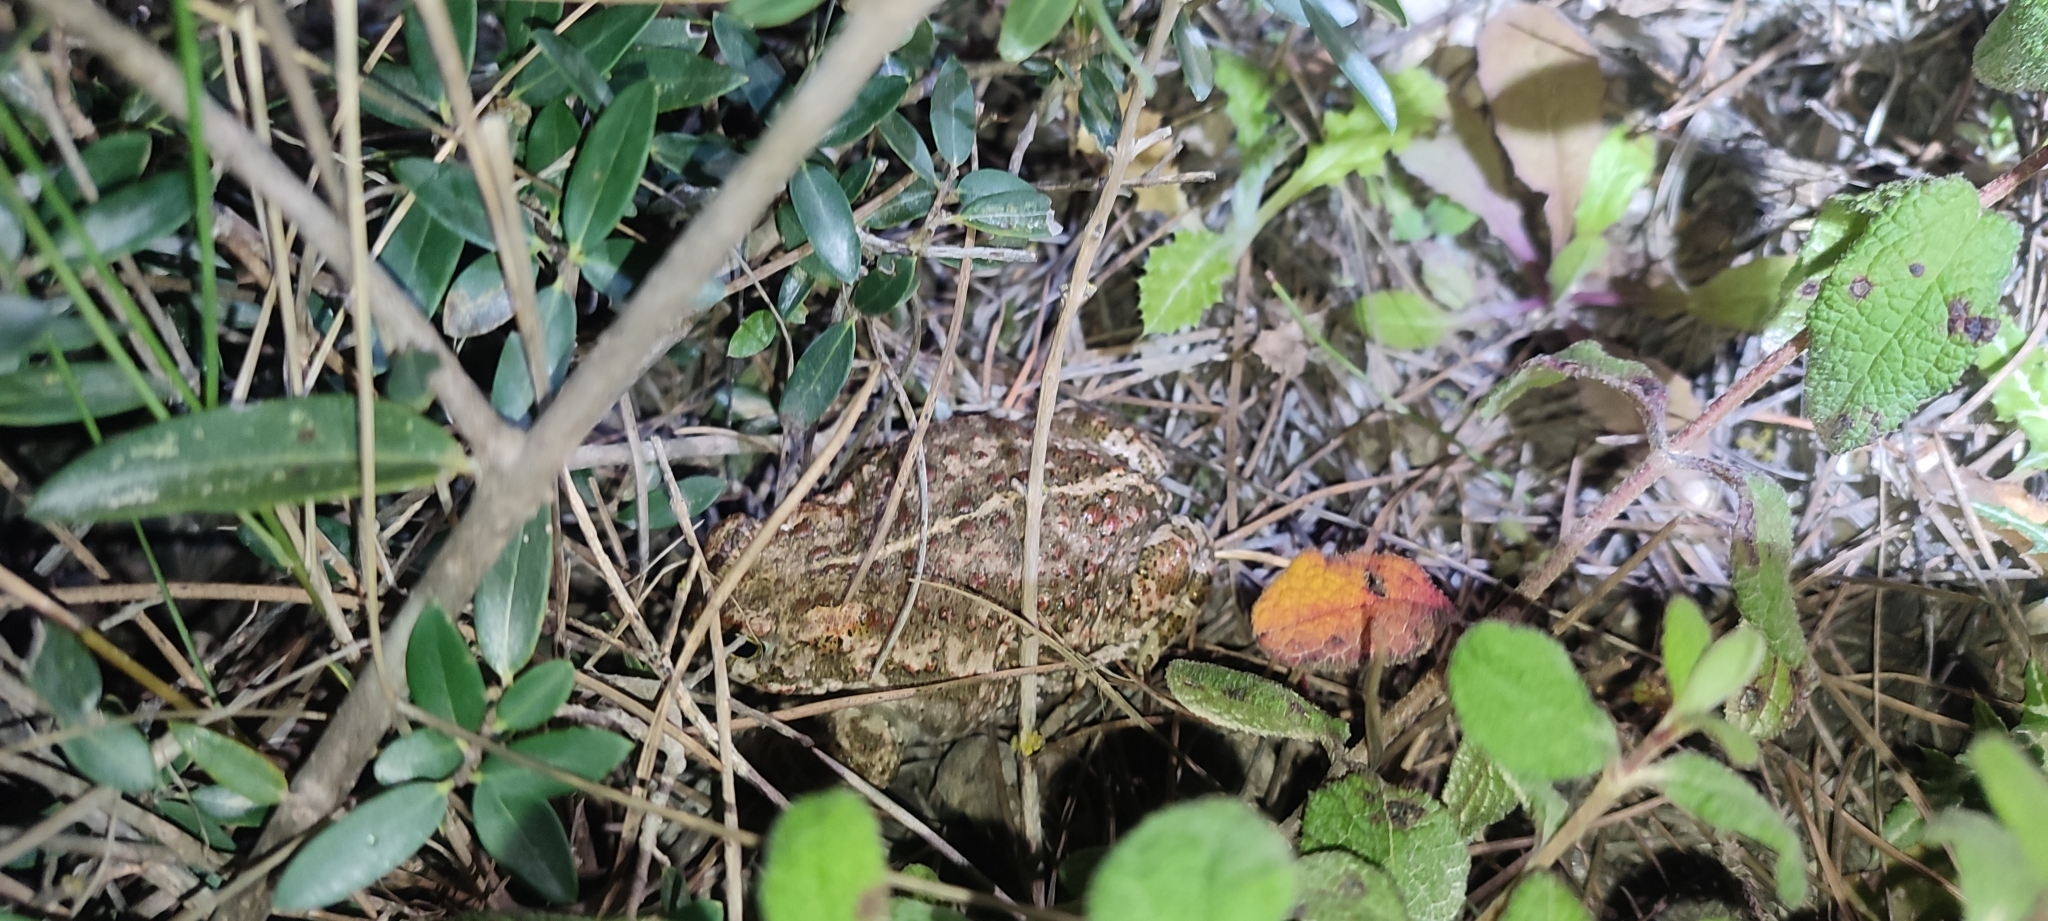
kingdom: Animalia
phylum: Chordata
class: Amphibia
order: Anura
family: Bufonidae
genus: Epidalea
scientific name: Epidalea calamita
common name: Natterjack toad
